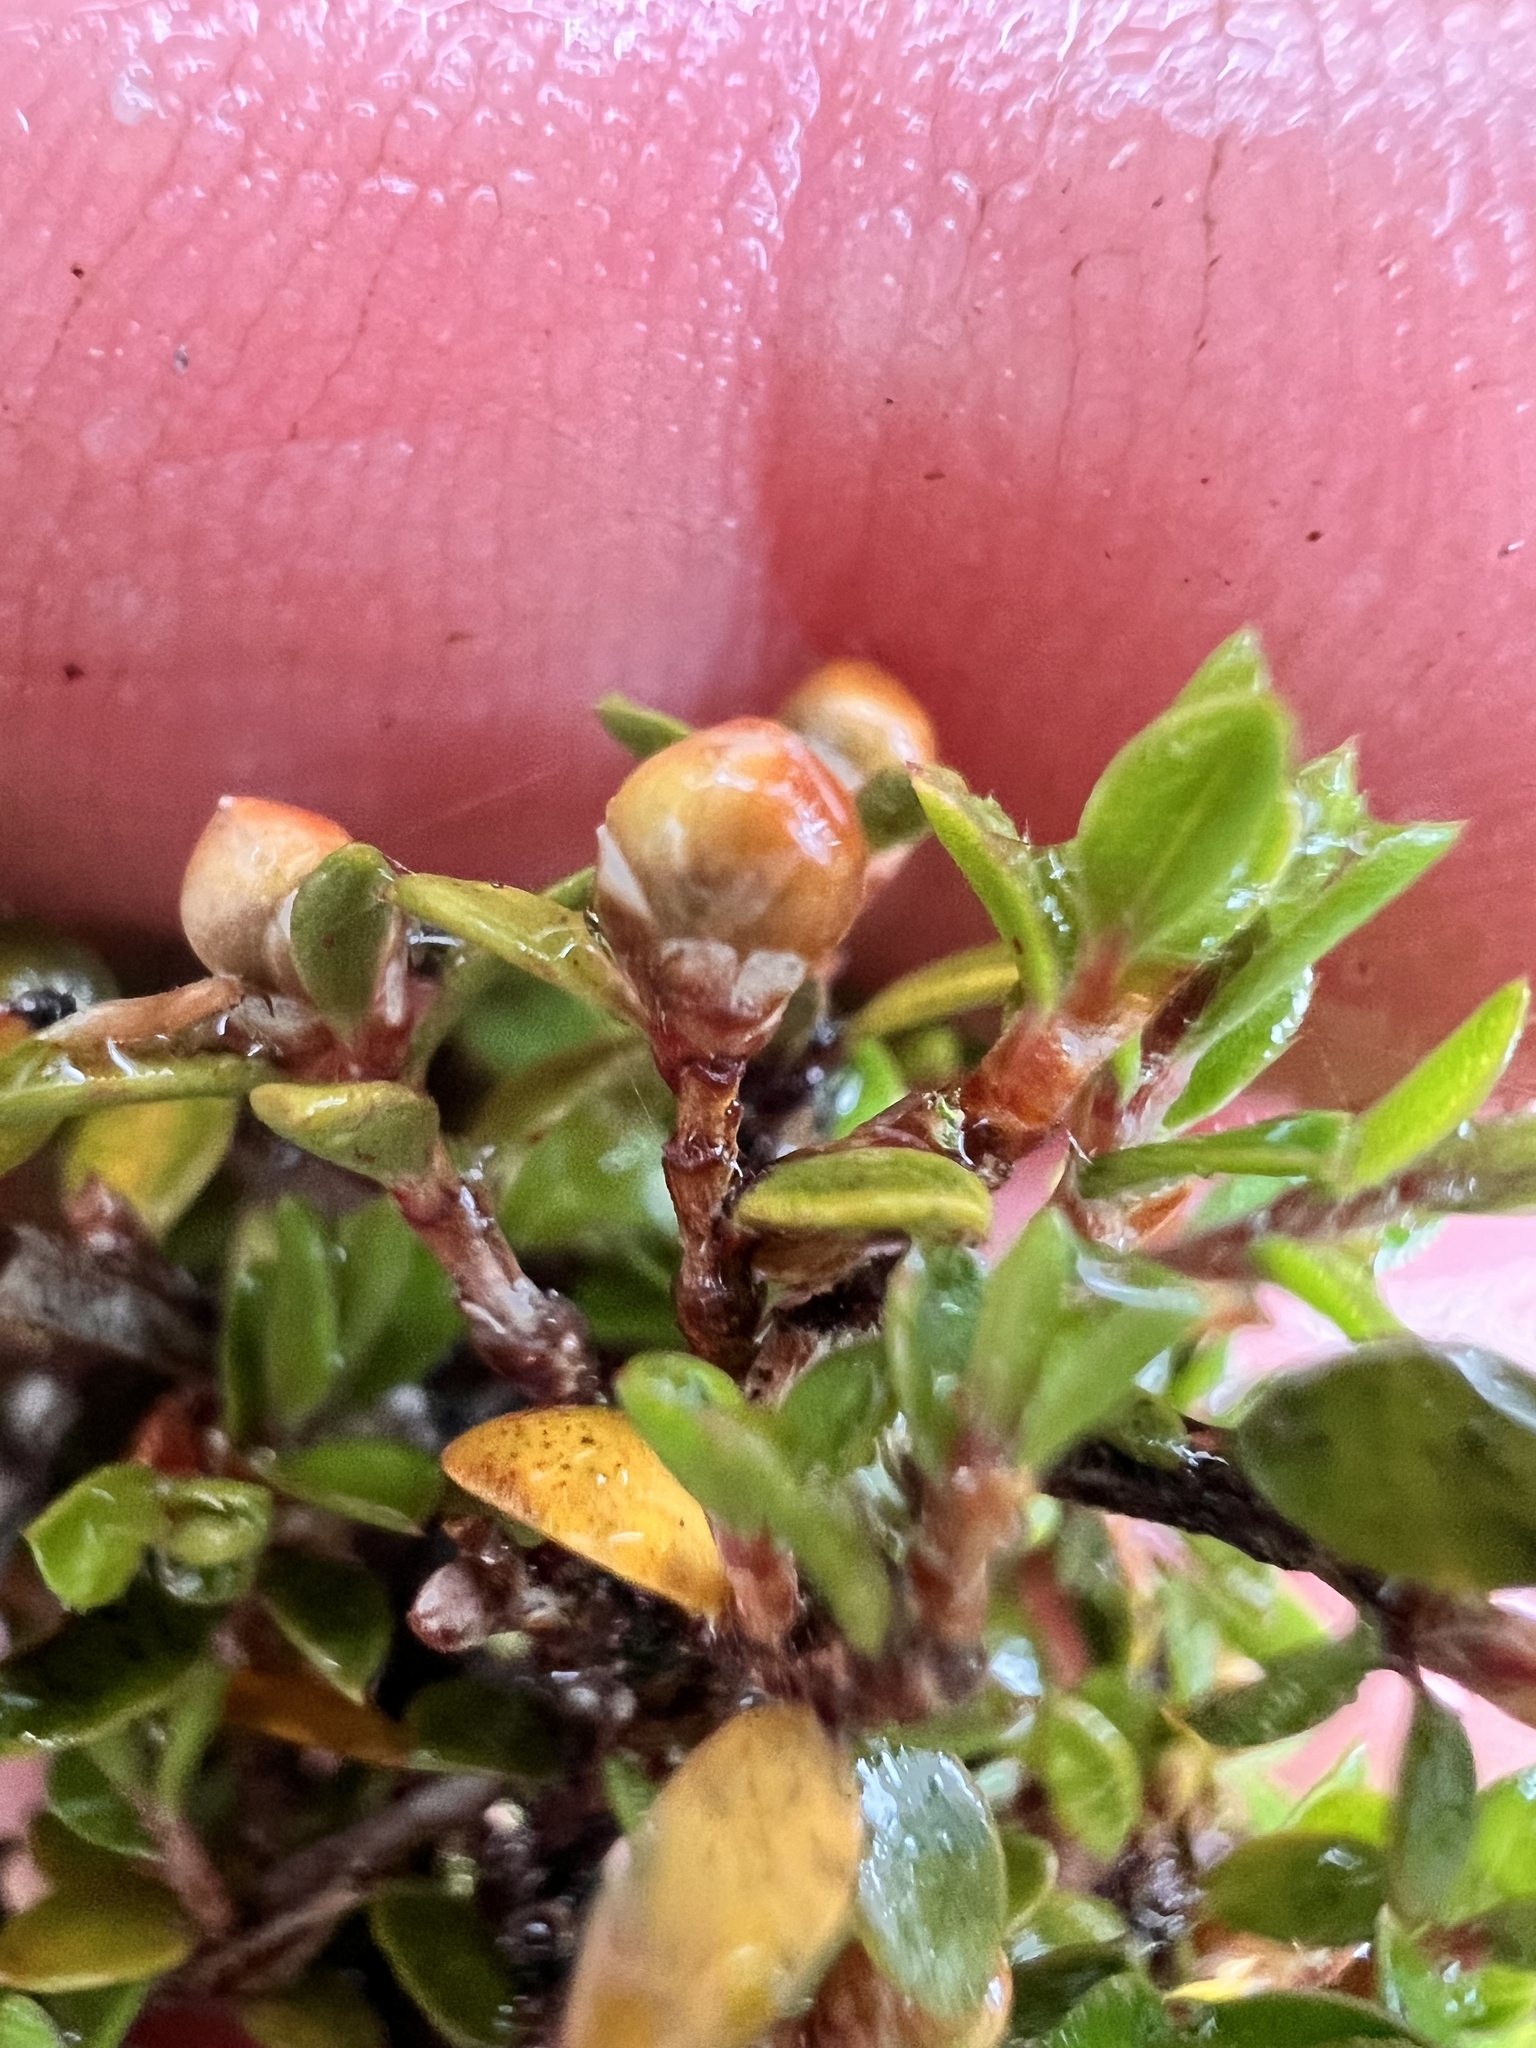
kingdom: Plantae
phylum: Tracheophyta
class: Magnoliopsida
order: Myrtales
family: Myrtaceae
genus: Leptospermum
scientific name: Leptospermum scoparium
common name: Broom tea-tree
